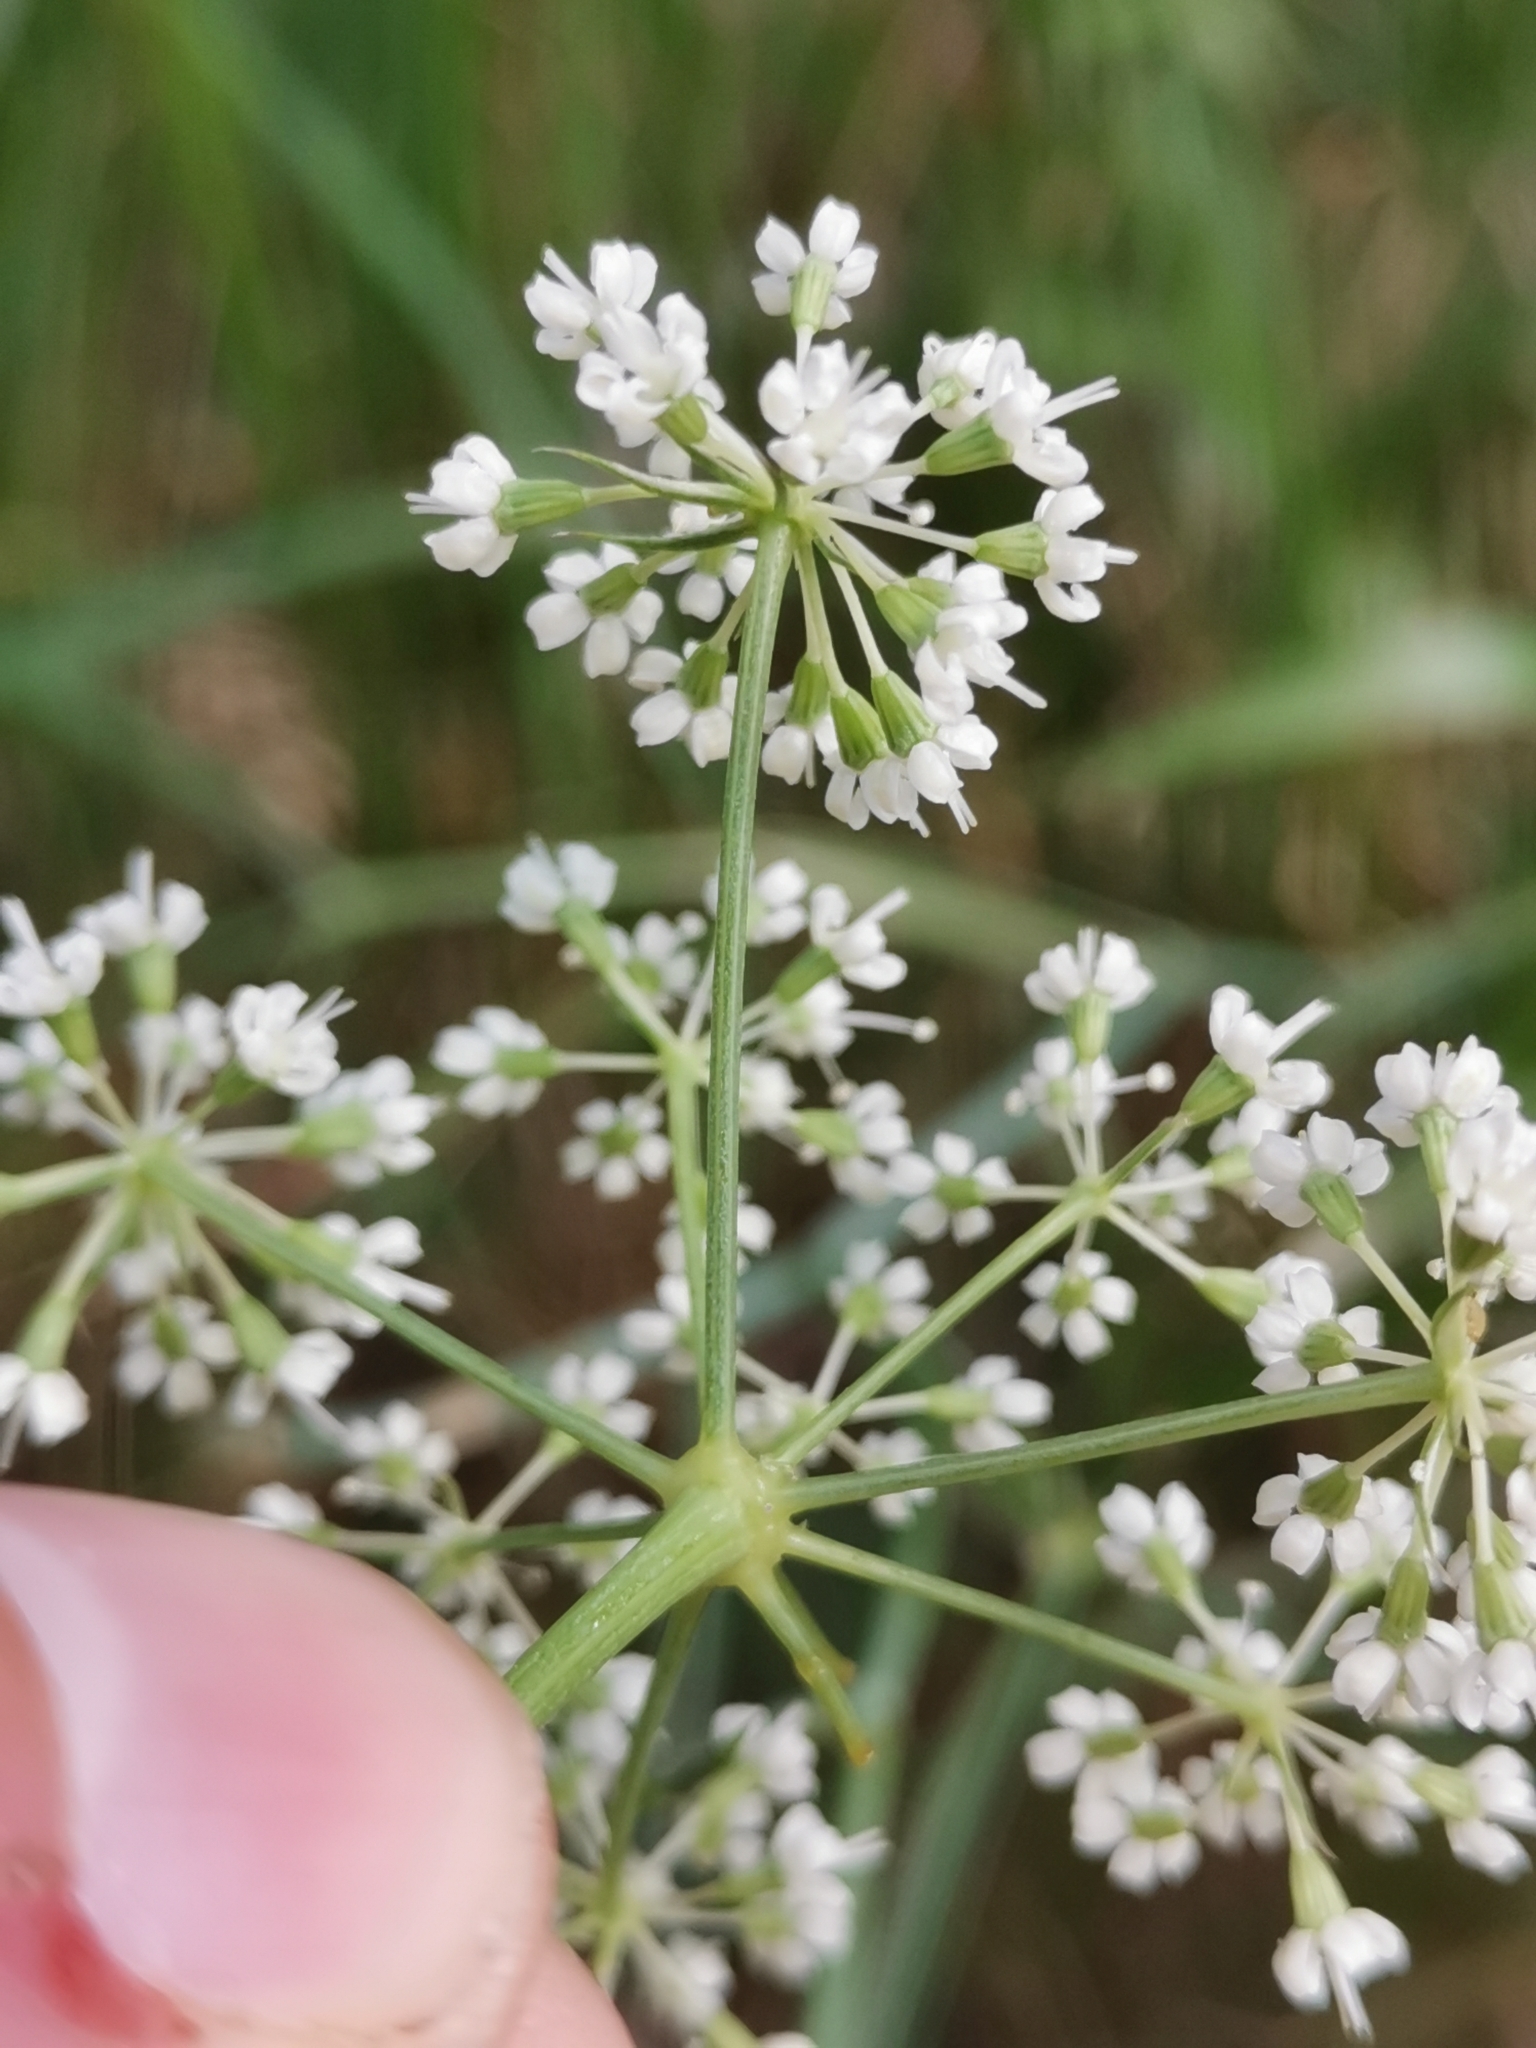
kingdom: Plantae
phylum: Tracheophyta
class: Magnoliopsida
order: Apiales
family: Apiaceae
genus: Peucedanum
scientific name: Peucedanum schottii
